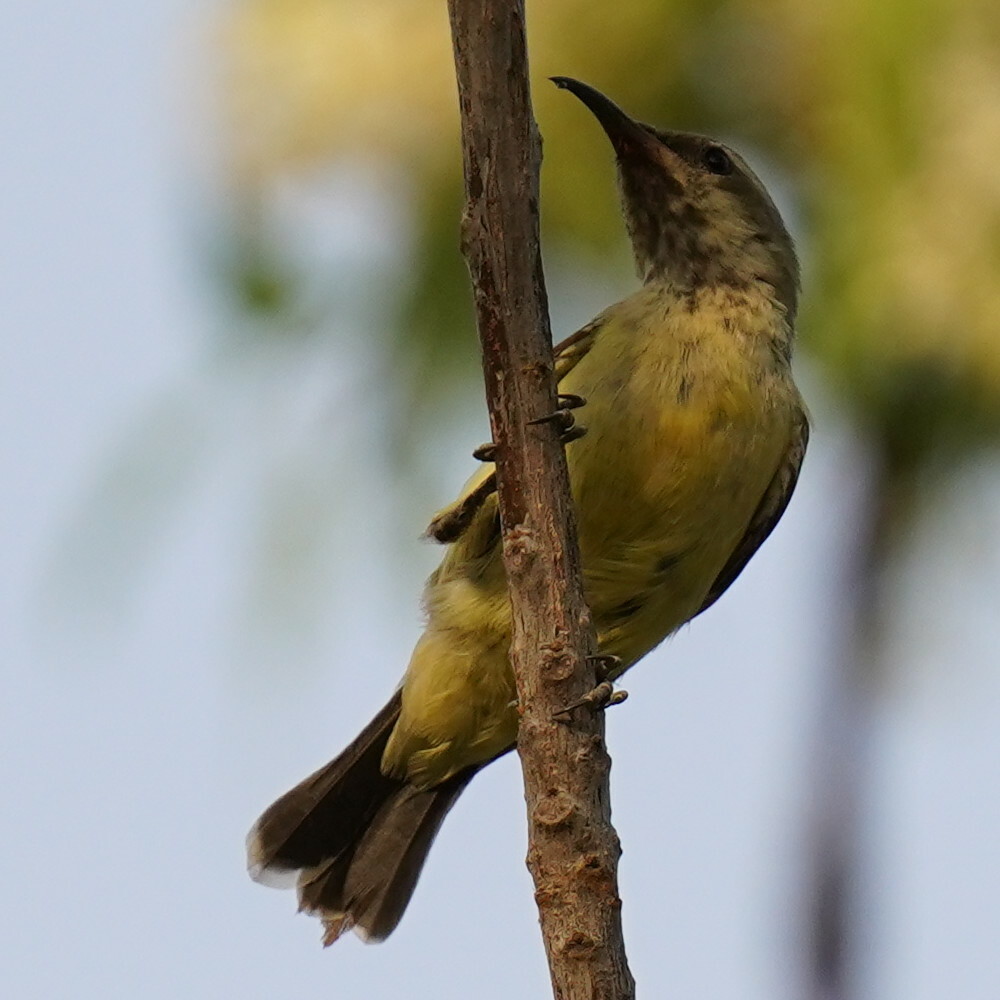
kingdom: Animalia
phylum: Chordata
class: Aves
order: Passeriformes
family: Nectariniidae
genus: Cinnyris
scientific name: Cinnyris pulchellus
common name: Beautiful sunbird
